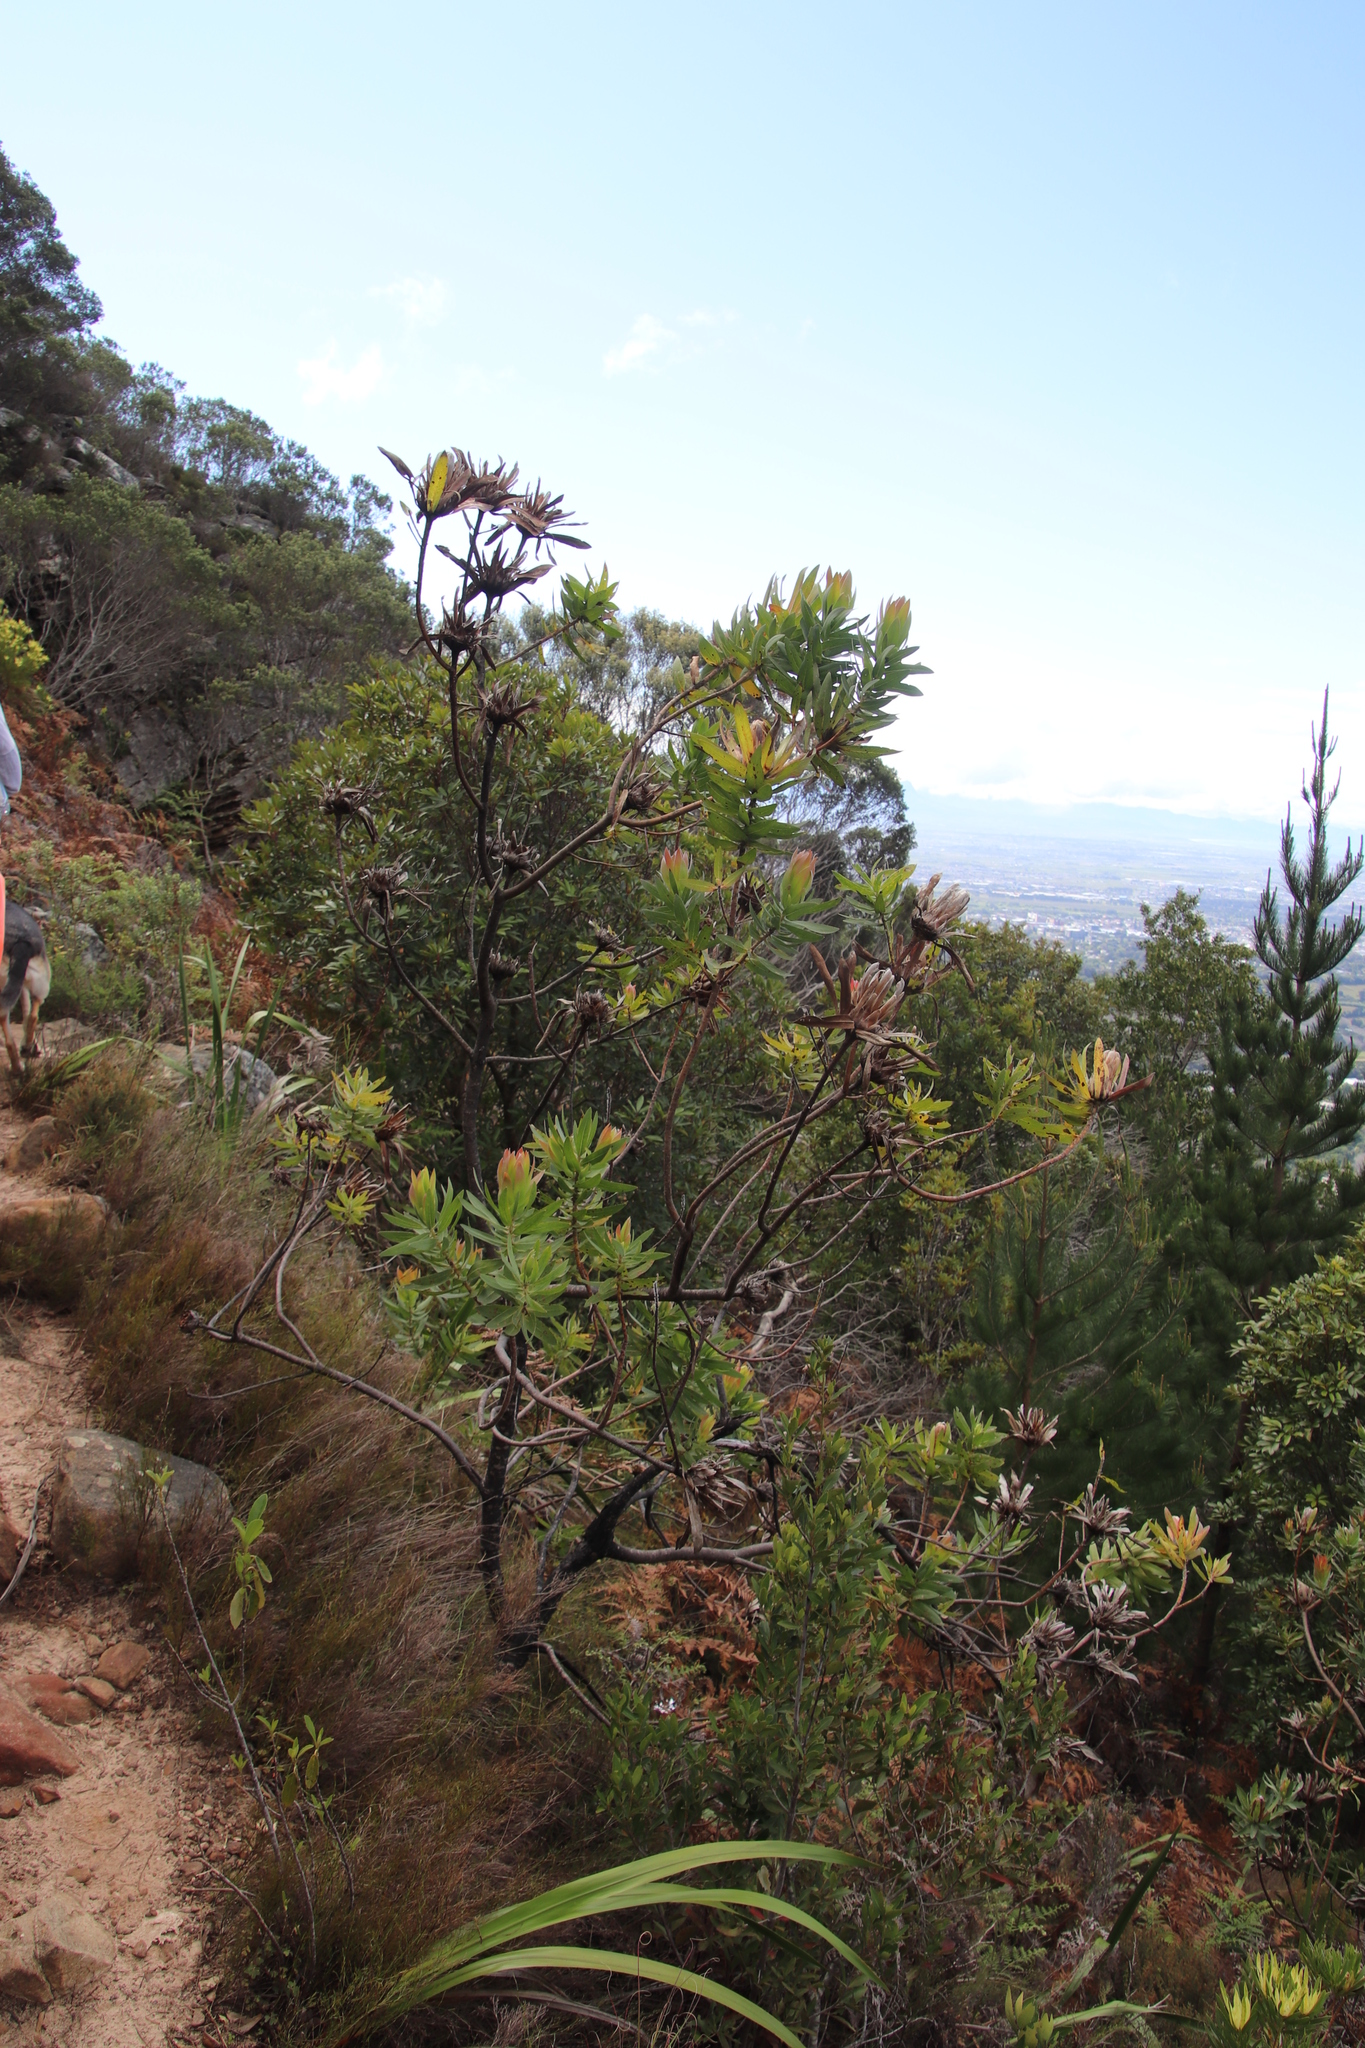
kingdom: Plantae
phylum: Tracheophyta
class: Magnoliopsida
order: Proteales
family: Proteaceae
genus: Protea
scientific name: Protea coronata
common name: Green sugarbush
